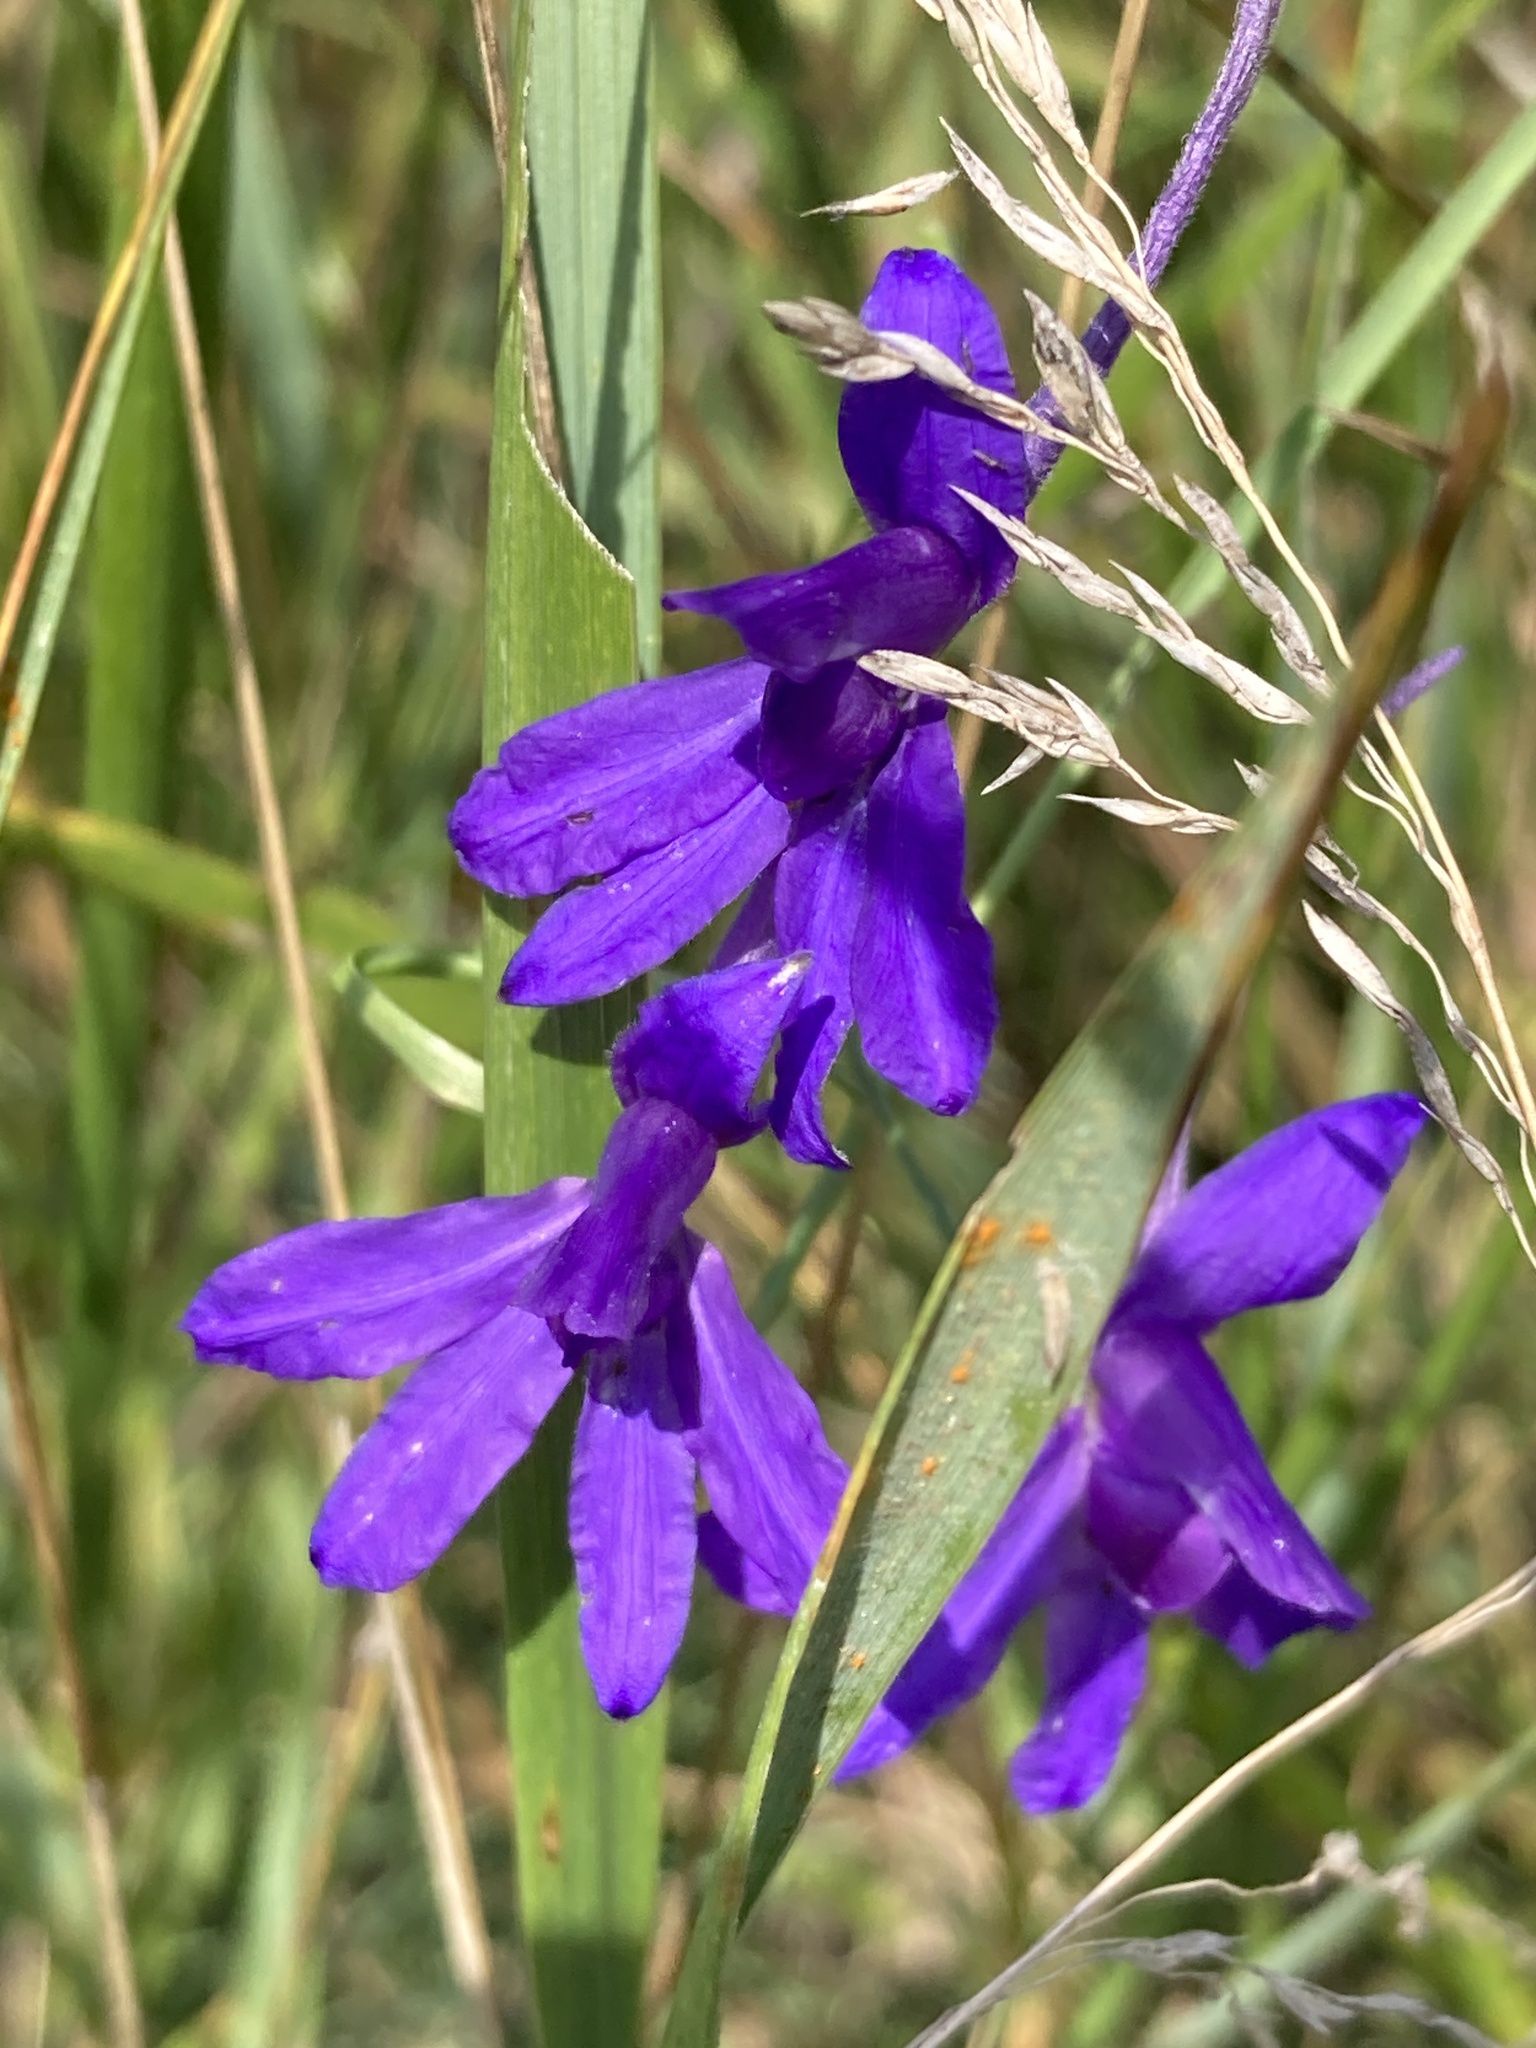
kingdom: Plantae
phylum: Tracheophyta
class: Magnoliopsida
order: Ranunculales
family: Ranunculaceae
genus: Delphinium
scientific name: Delphinium consolida
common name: Branching larkspur
